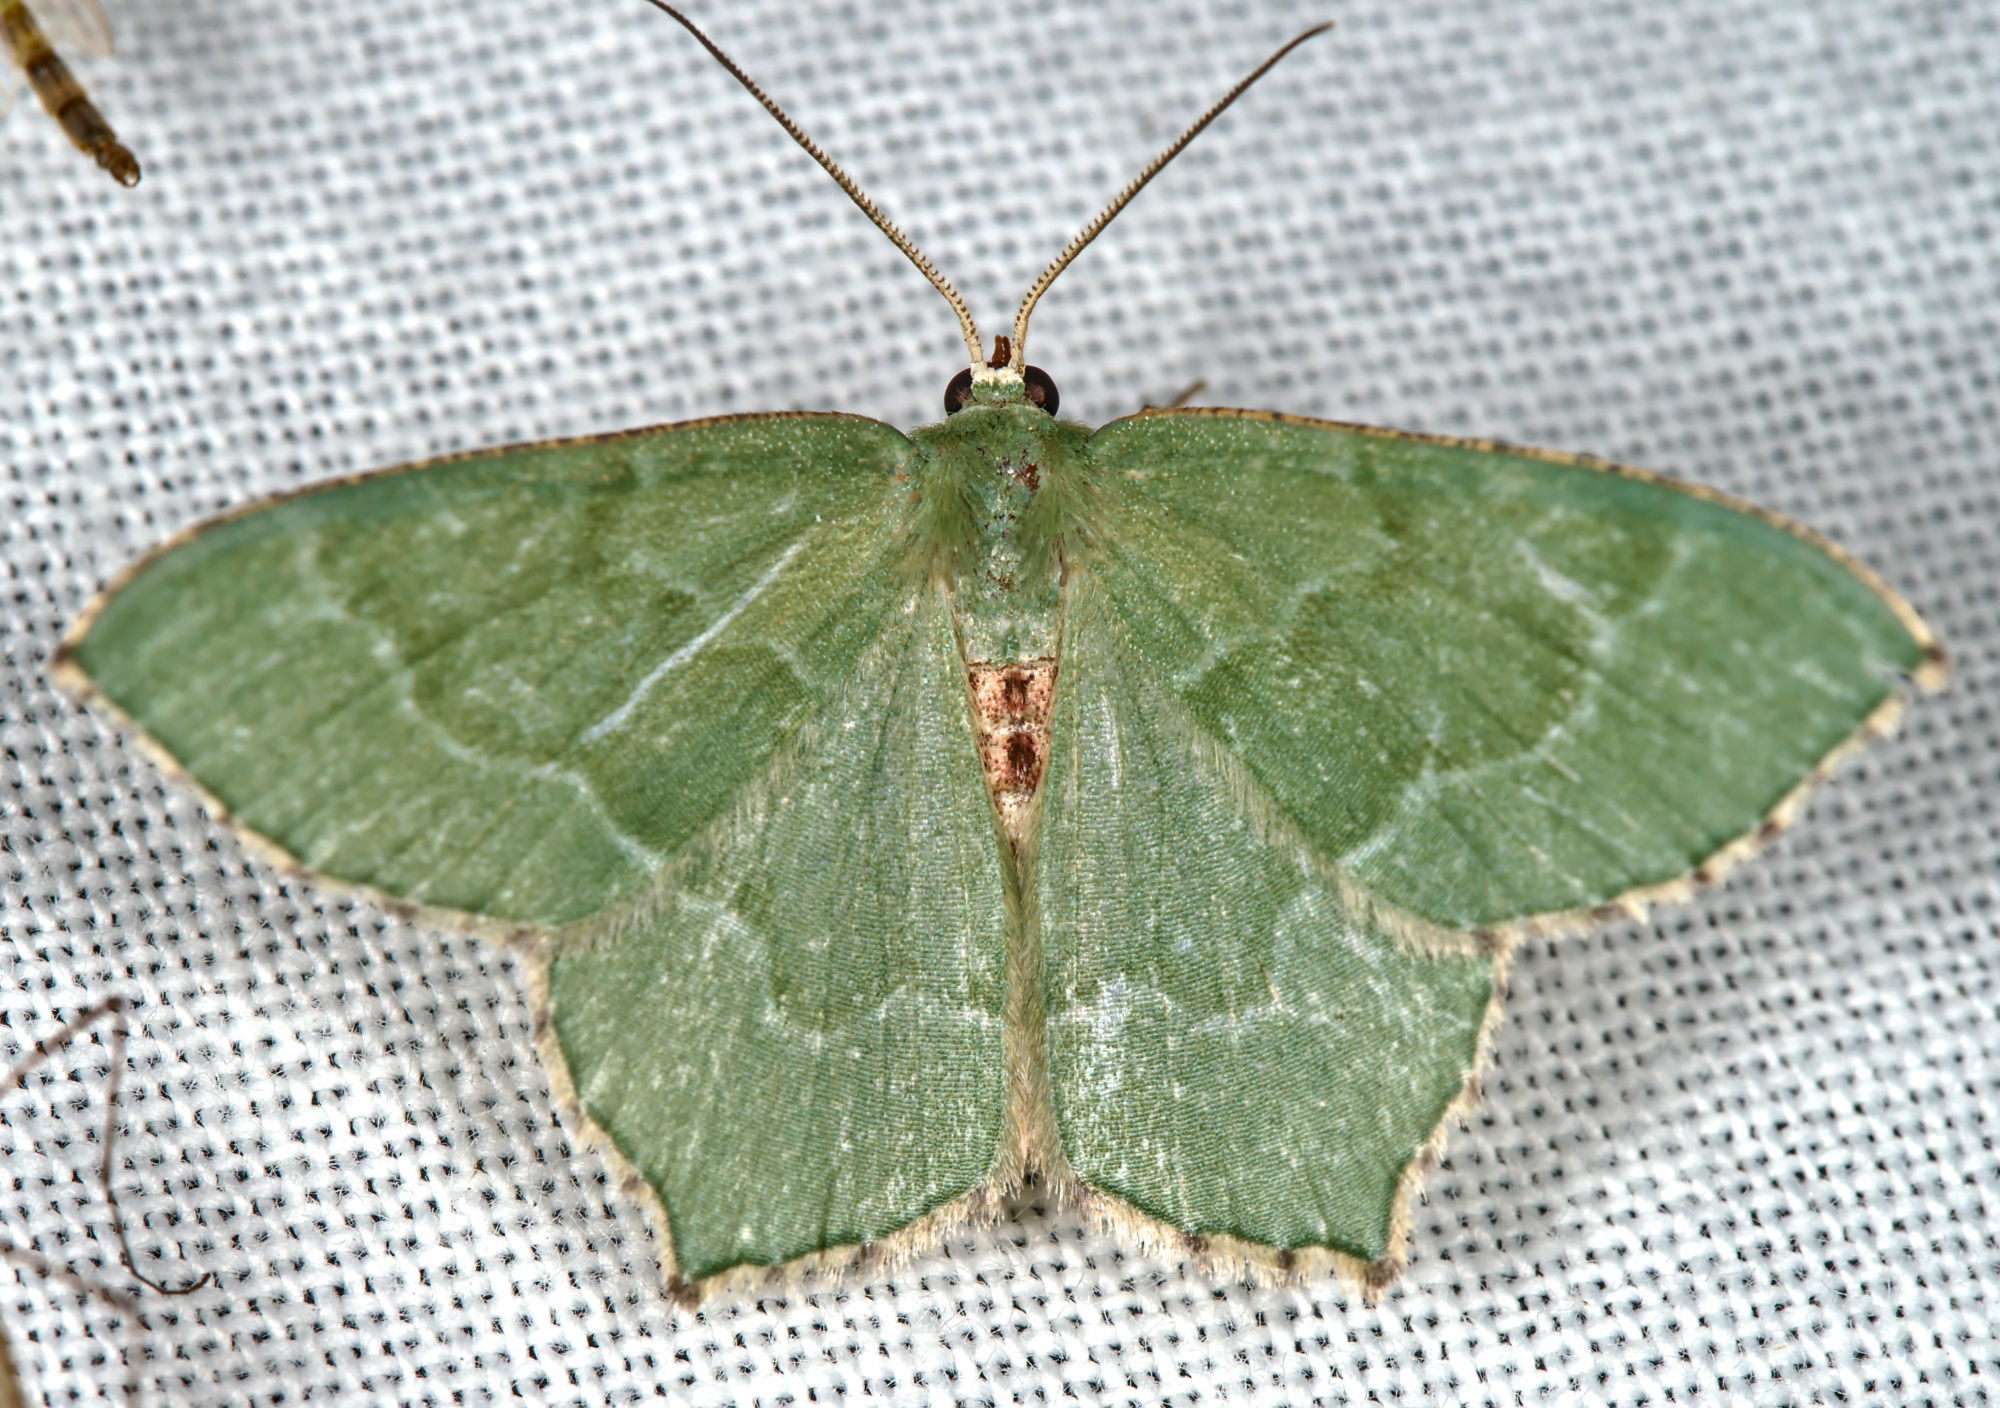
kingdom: Animalia
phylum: Arthropoda
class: Insecta
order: Lepidoptera
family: Geometridae
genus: Hemithea
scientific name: Hemithea aestivaria
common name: Common emerald
